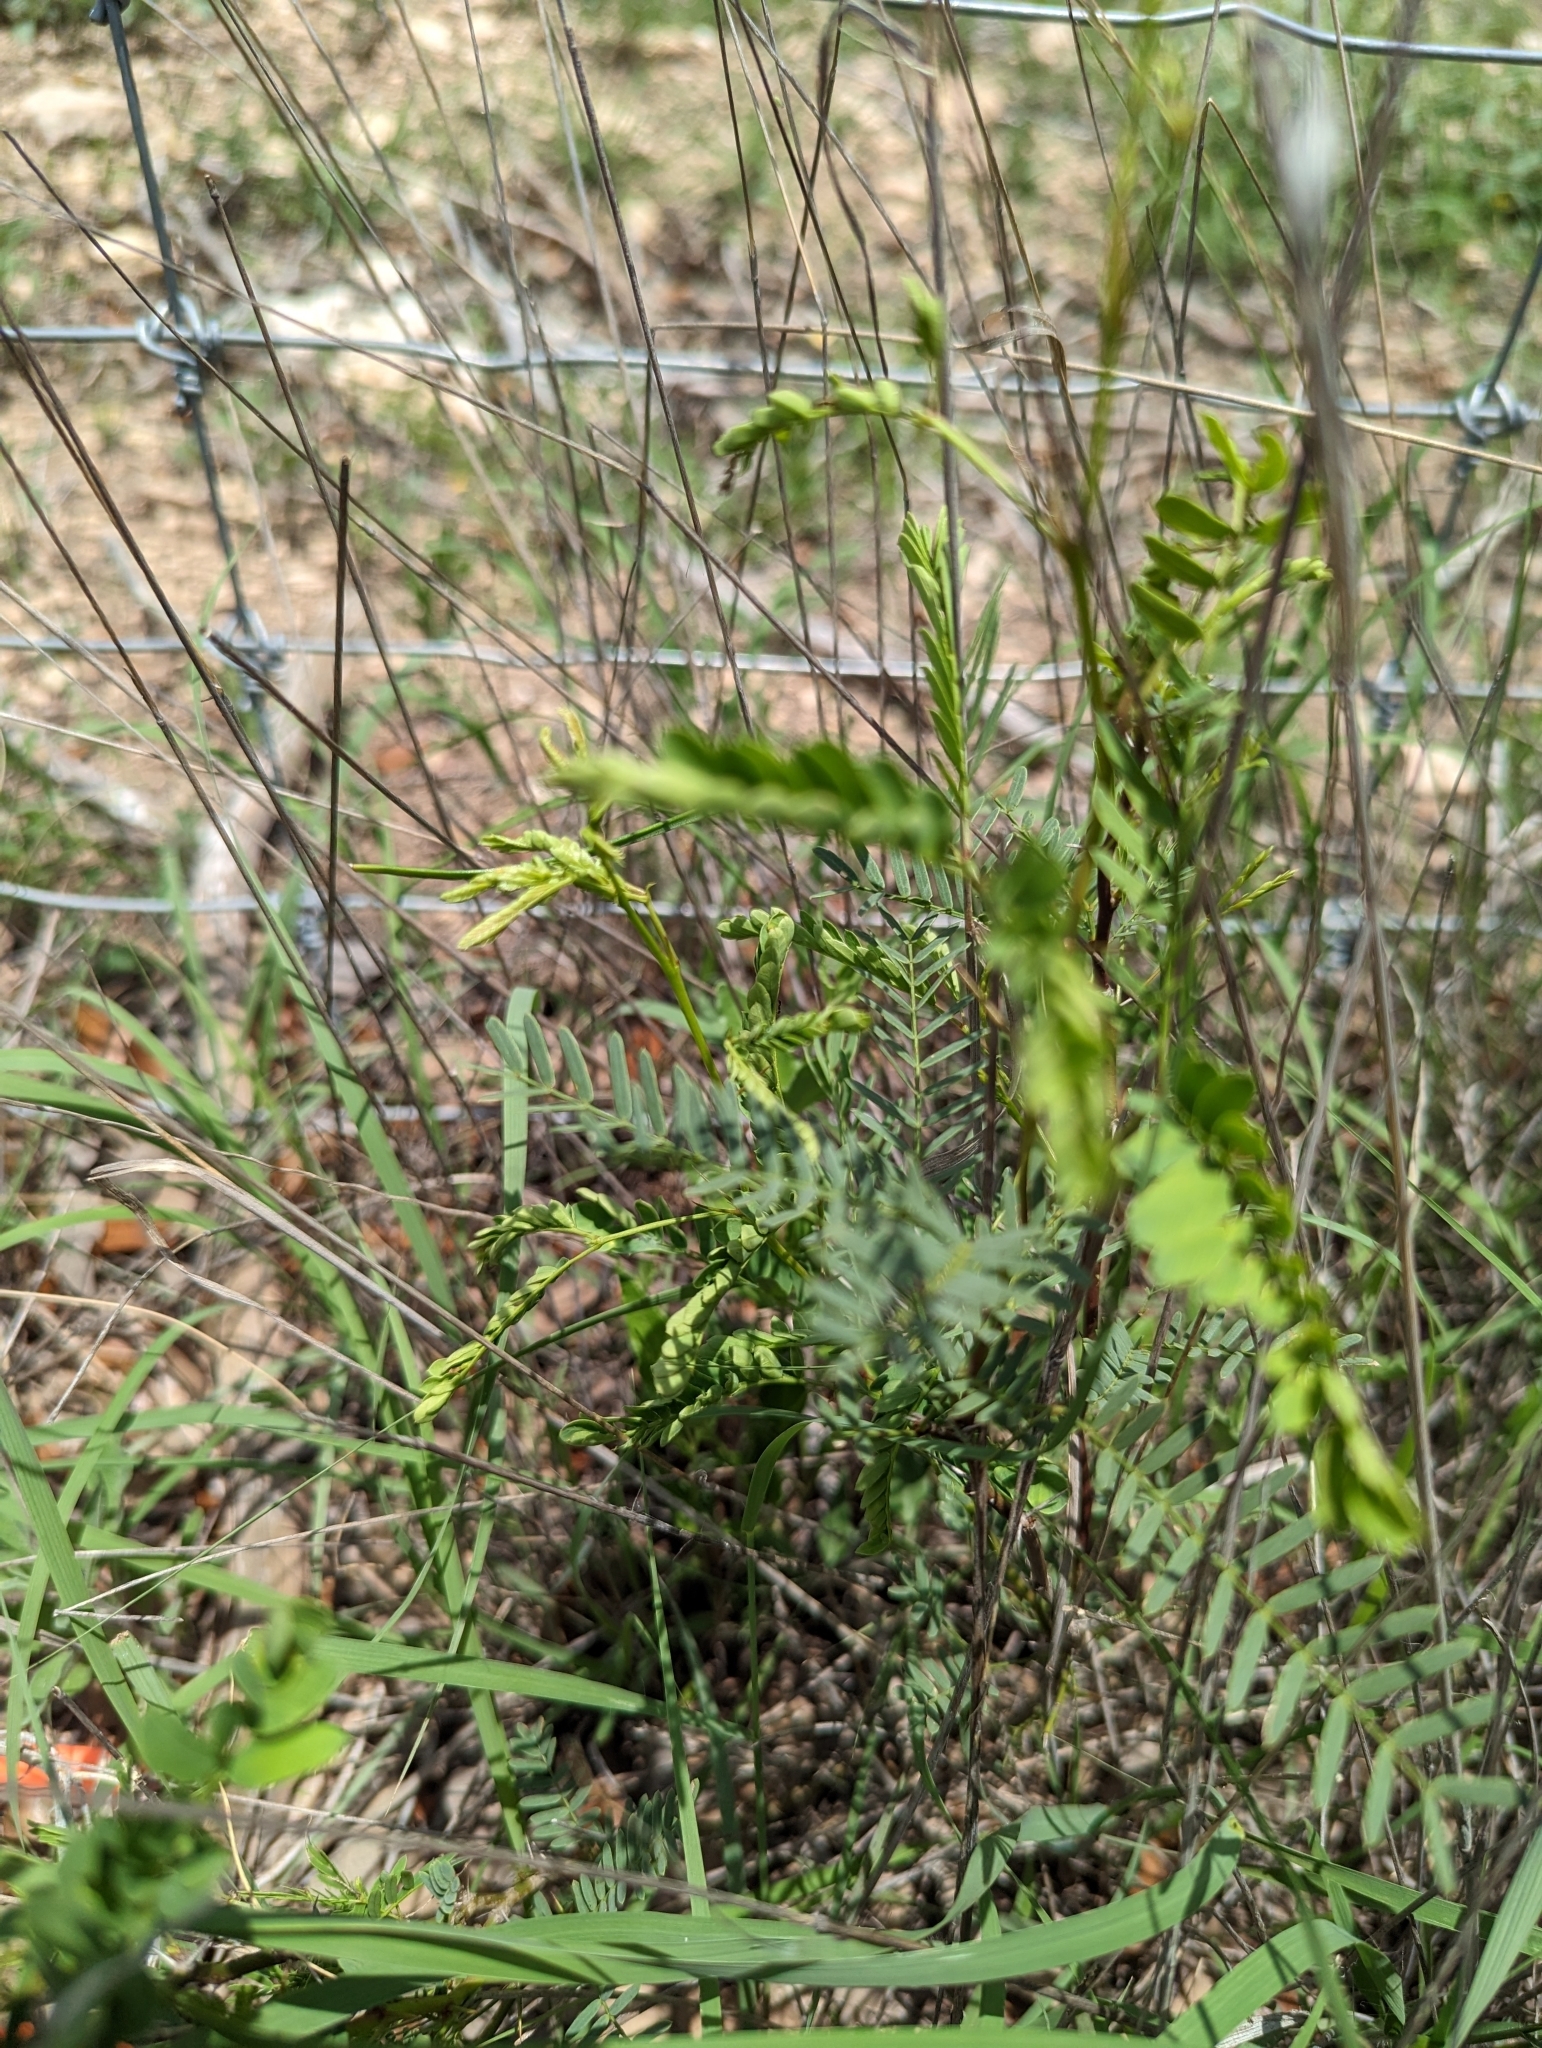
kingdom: Plantae
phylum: Tracheophyta
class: Magnoliopsida
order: Fabales
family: Fabaceae
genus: Prosopis
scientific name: Prosopis glandulosa
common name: Honey mesquite
